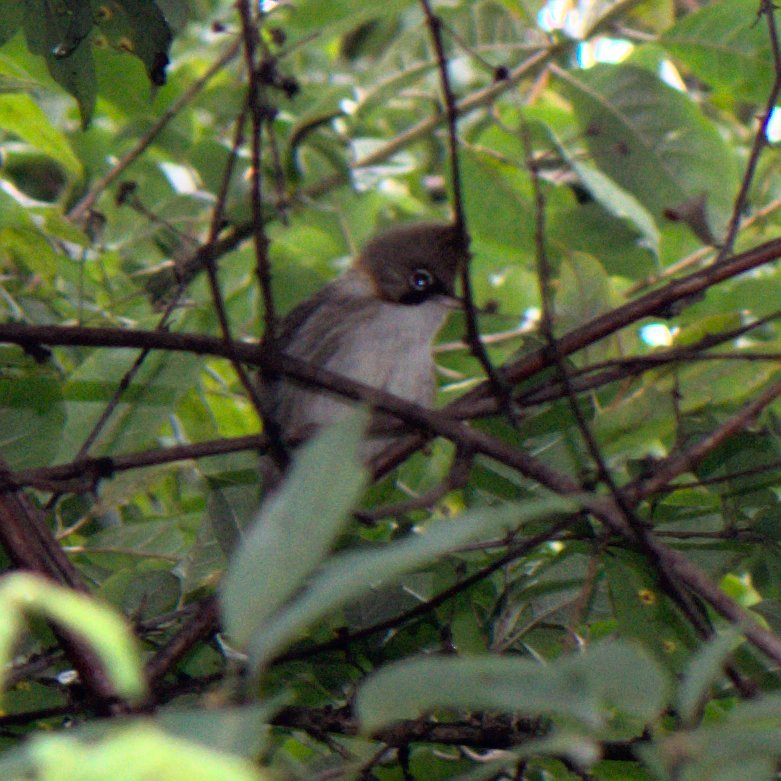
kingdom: Animalia
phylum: Chordata
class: Aves
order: Passeriformes
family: Zosteropidae
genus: Yuhina
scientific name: Yuhina flavicollis
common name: Whiskered yuhina
